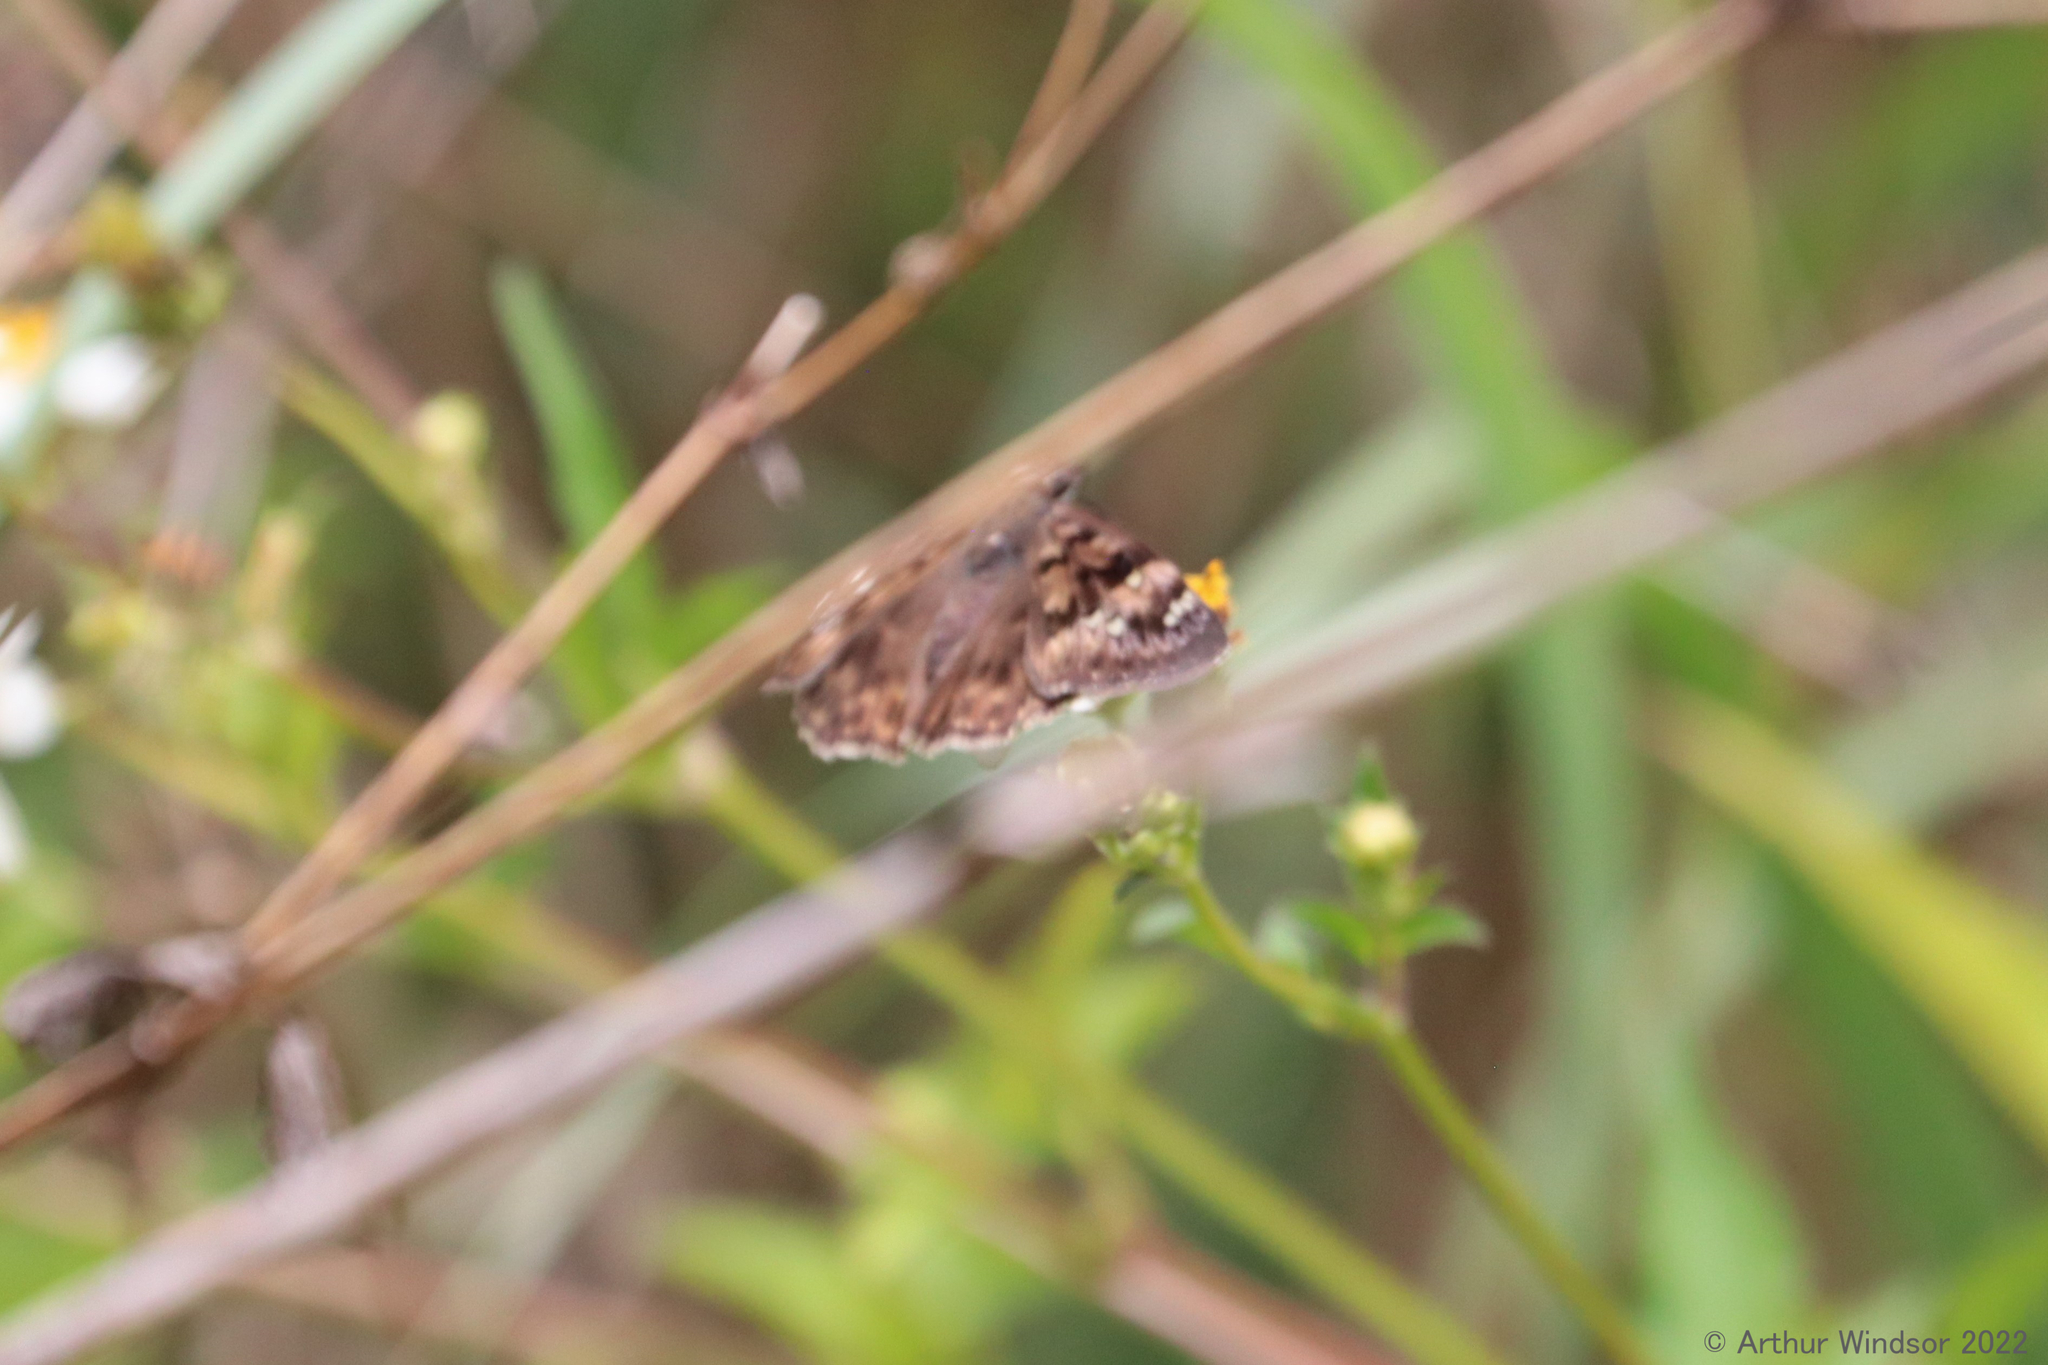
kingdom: Animalia
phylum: Arthropoda
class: Insecta
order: Lepidoptera
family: Hesperiidae
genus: Erynnis
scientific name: Erynnis horatius
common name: Horace's duskywing
